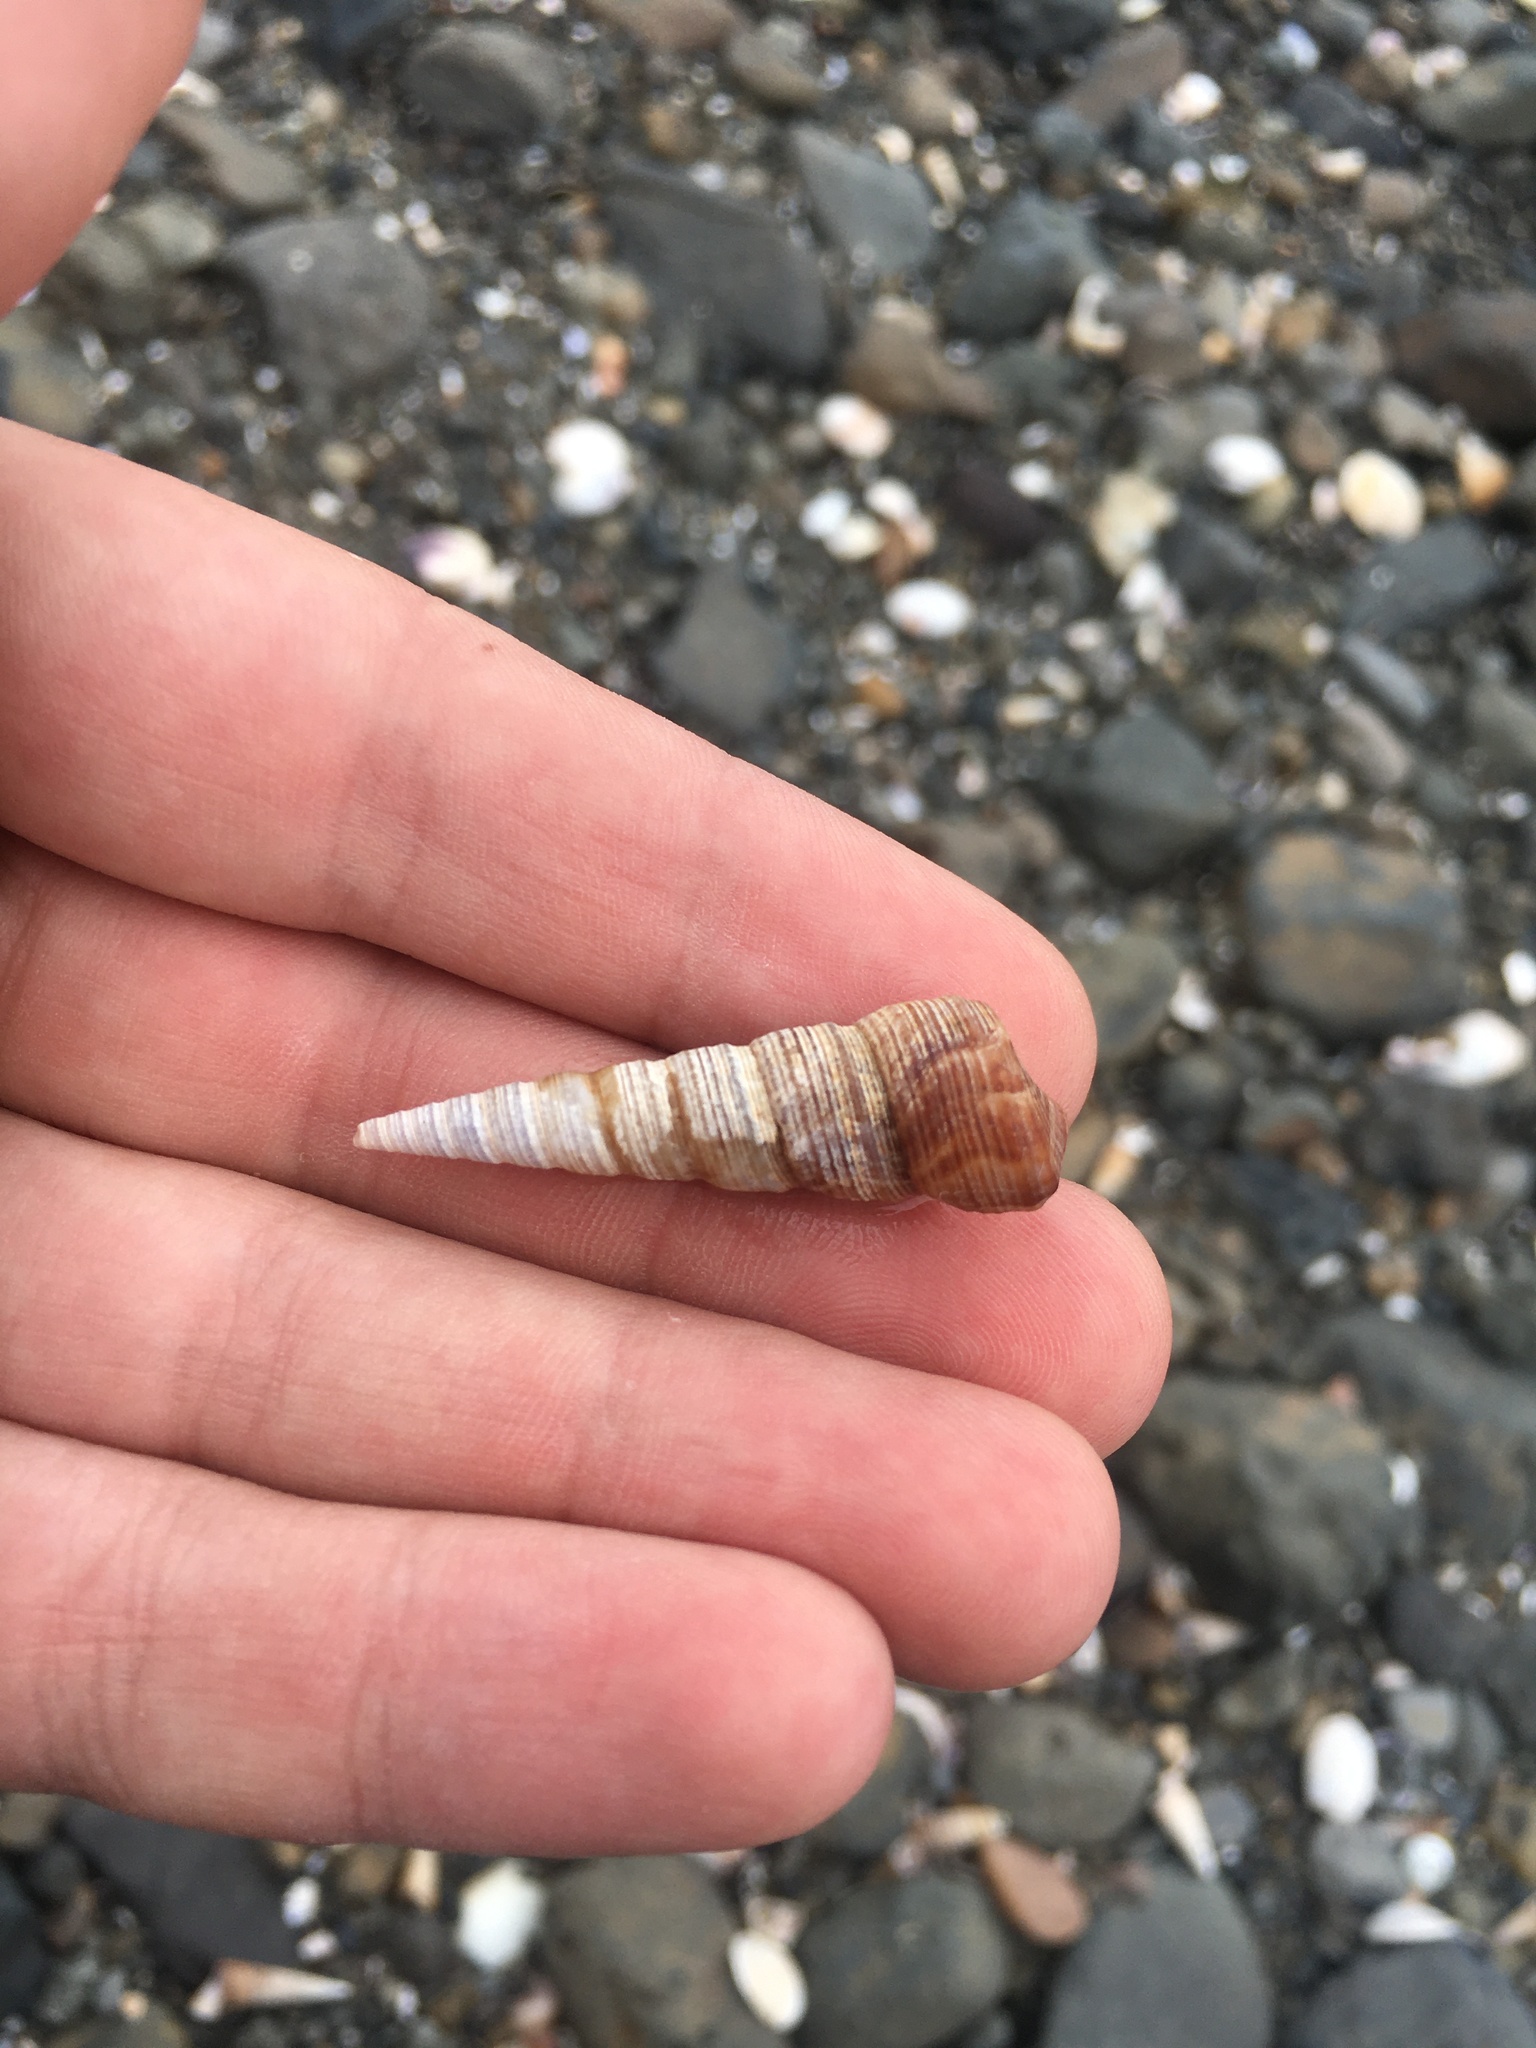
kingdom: Animalia
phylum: Mollusca
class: Gastropoda
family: Turritellidae
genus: Maoricolpus
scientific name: Maoricolpus roseus
